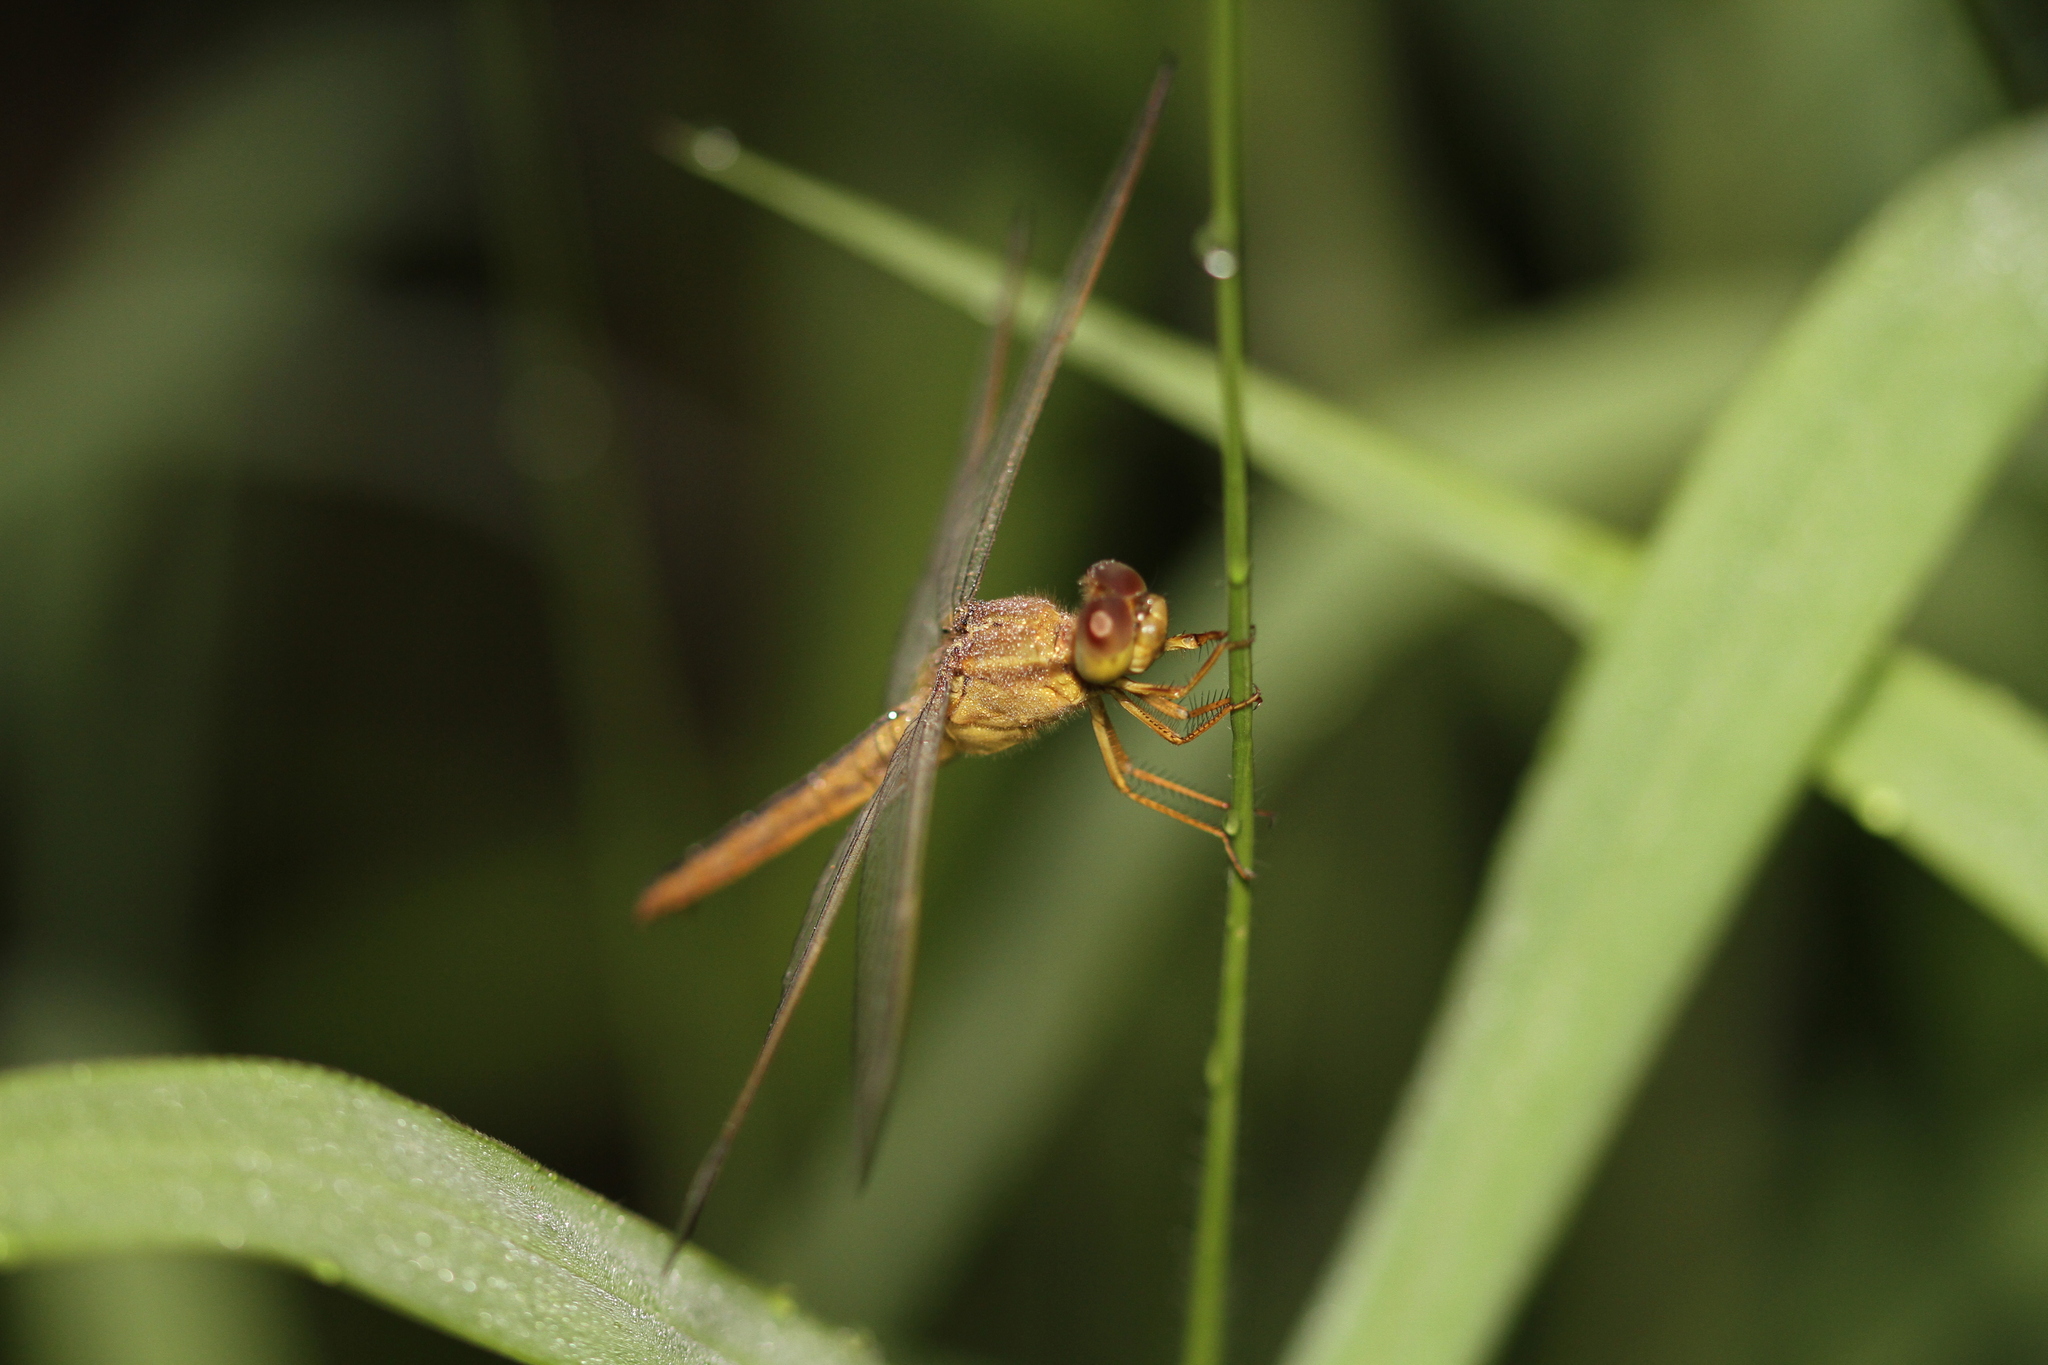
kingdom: Animalia
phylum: Arthropoda
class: Insecta
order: Odonata
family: Libellulidae
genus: Crocothemis
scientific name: Crocothemis servilia
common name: Scarlet skimmer
